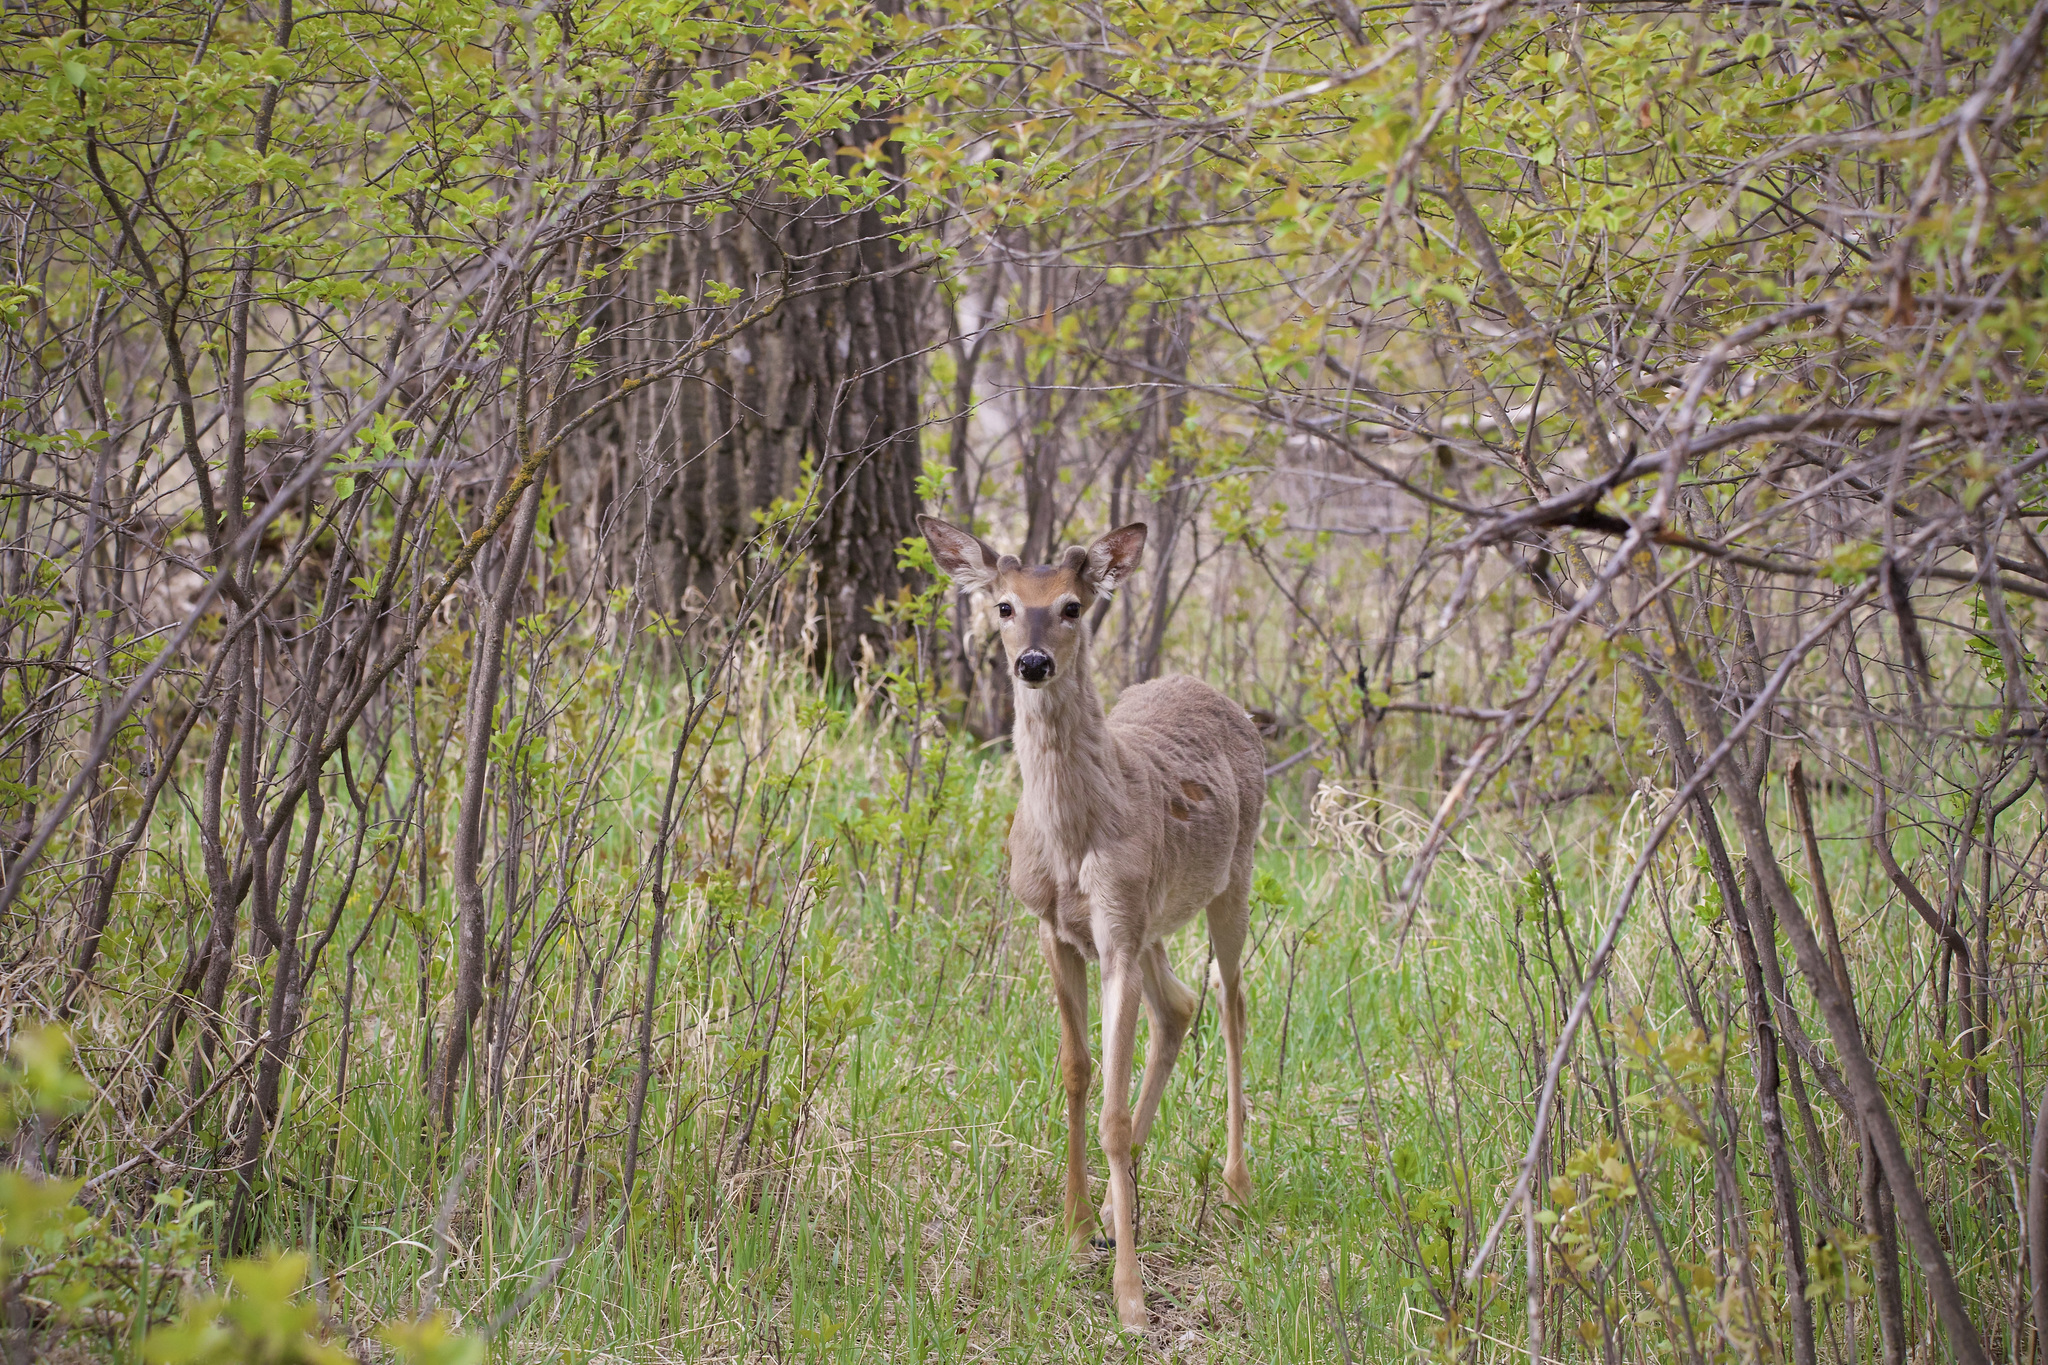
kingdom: Animalia
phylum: Chordata
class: Mammalia
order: Artiodactyla
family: Cervidae
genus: Odocoileus
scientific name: Odocoileus virginianus
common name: White-tailed deer
